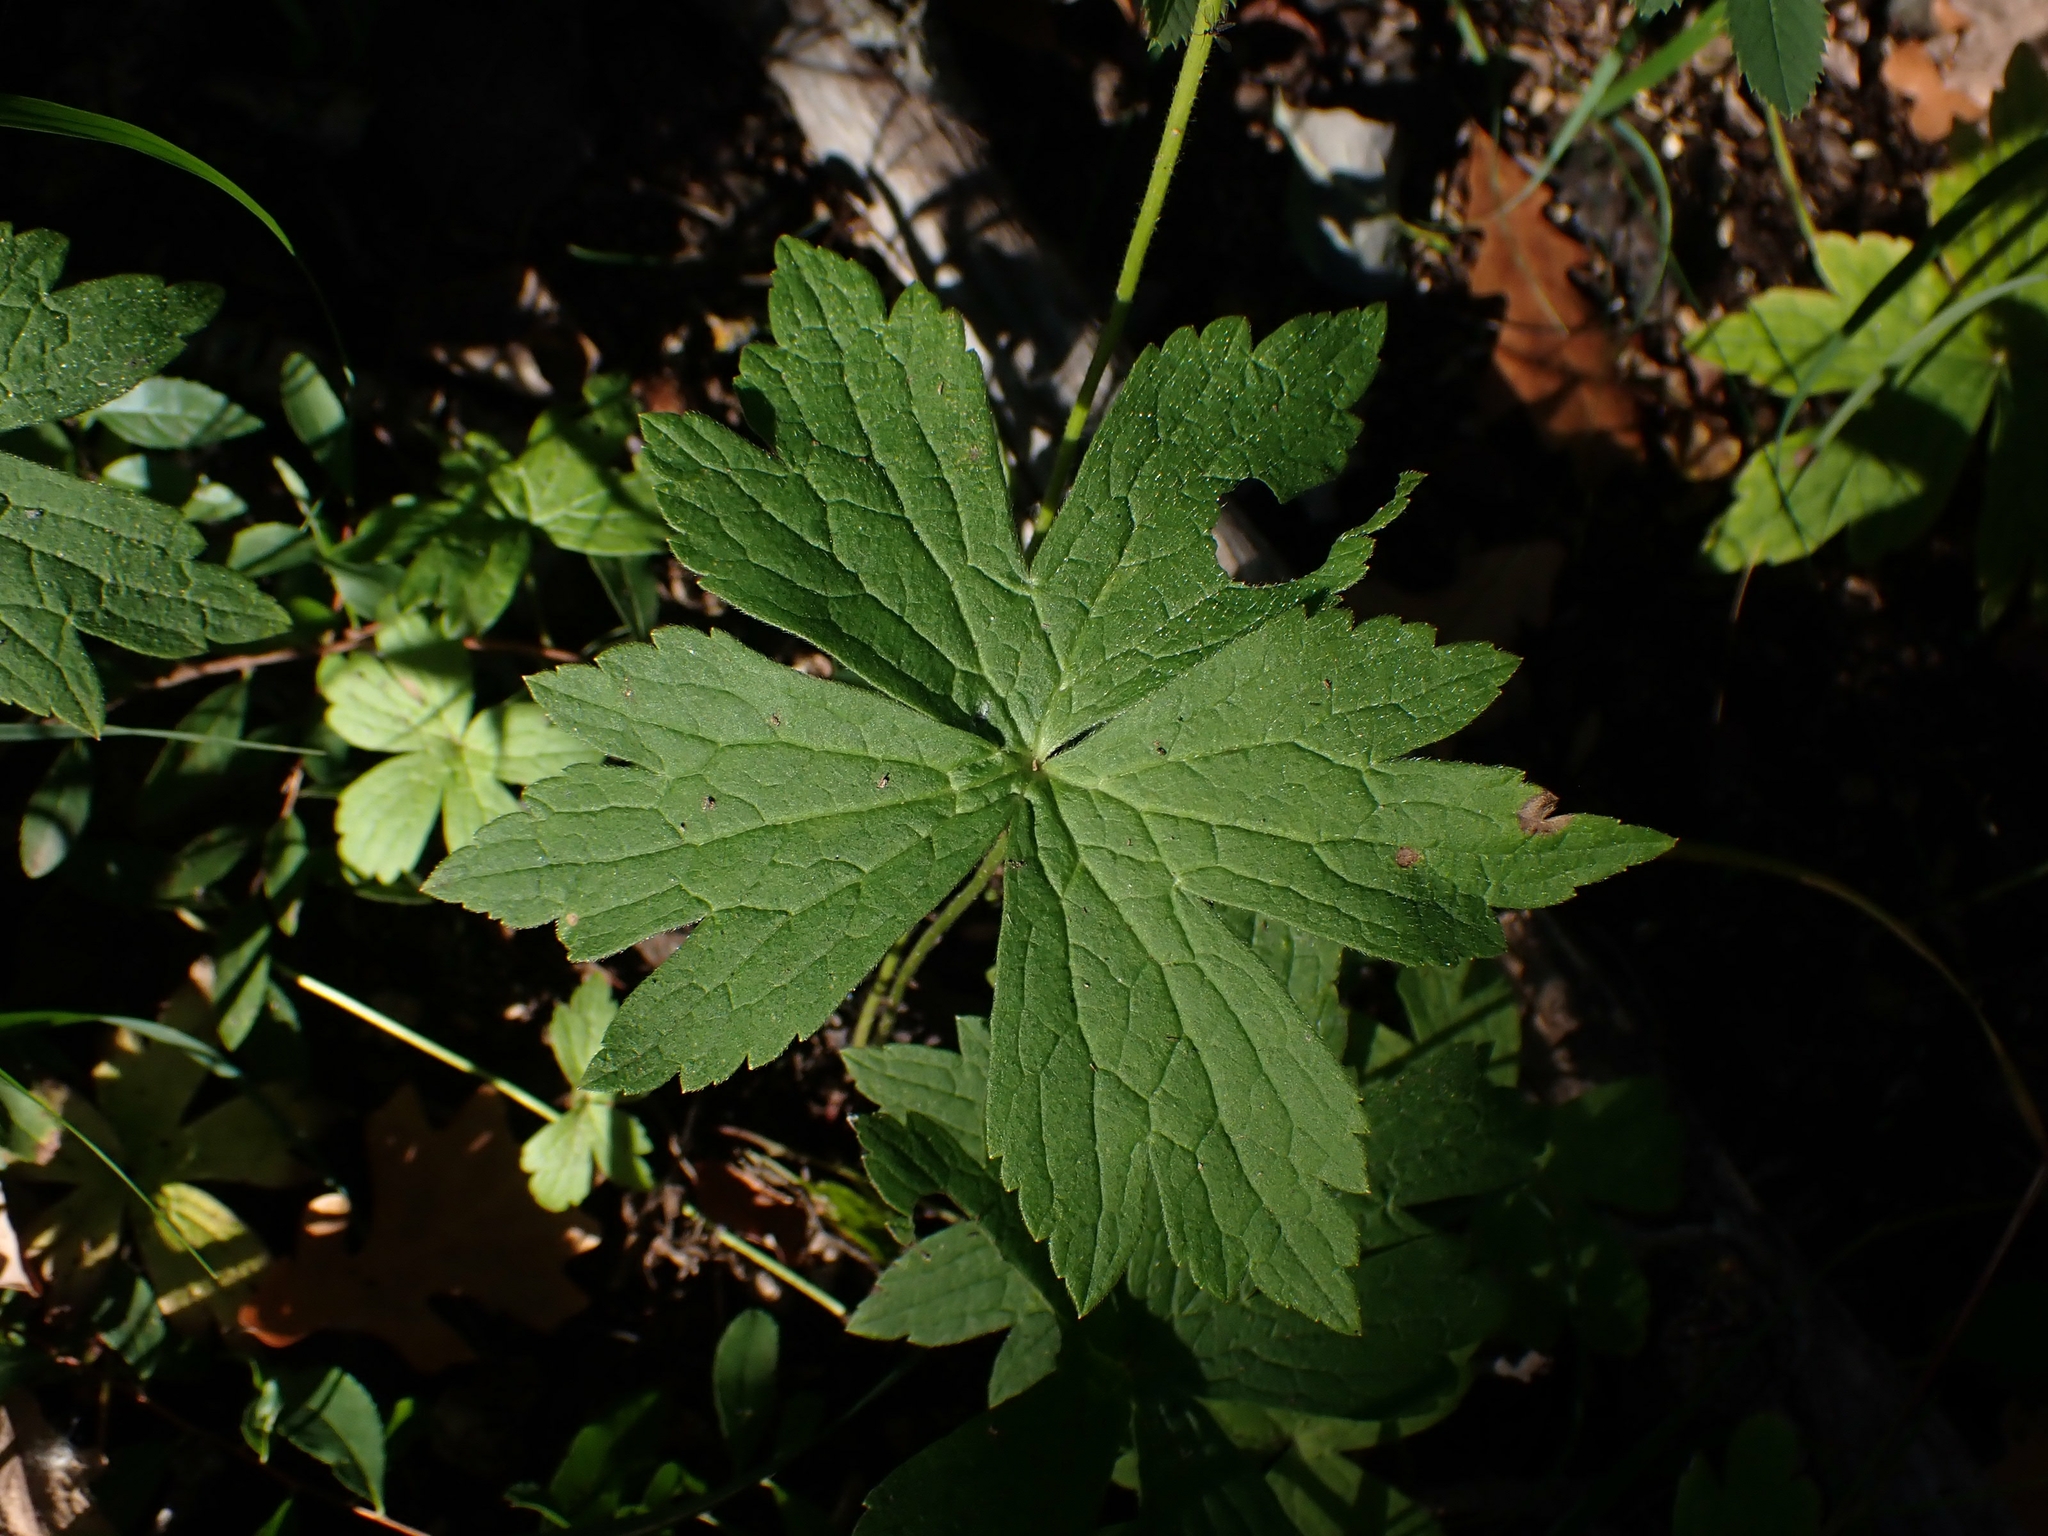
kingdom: Plantae
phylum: Tracheophyta
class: Magnoliopsida
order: Ranunculales
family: Ranunculaceae
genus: Anemonastrum
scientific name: Anemonastrum canadense
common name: Canada anemone
